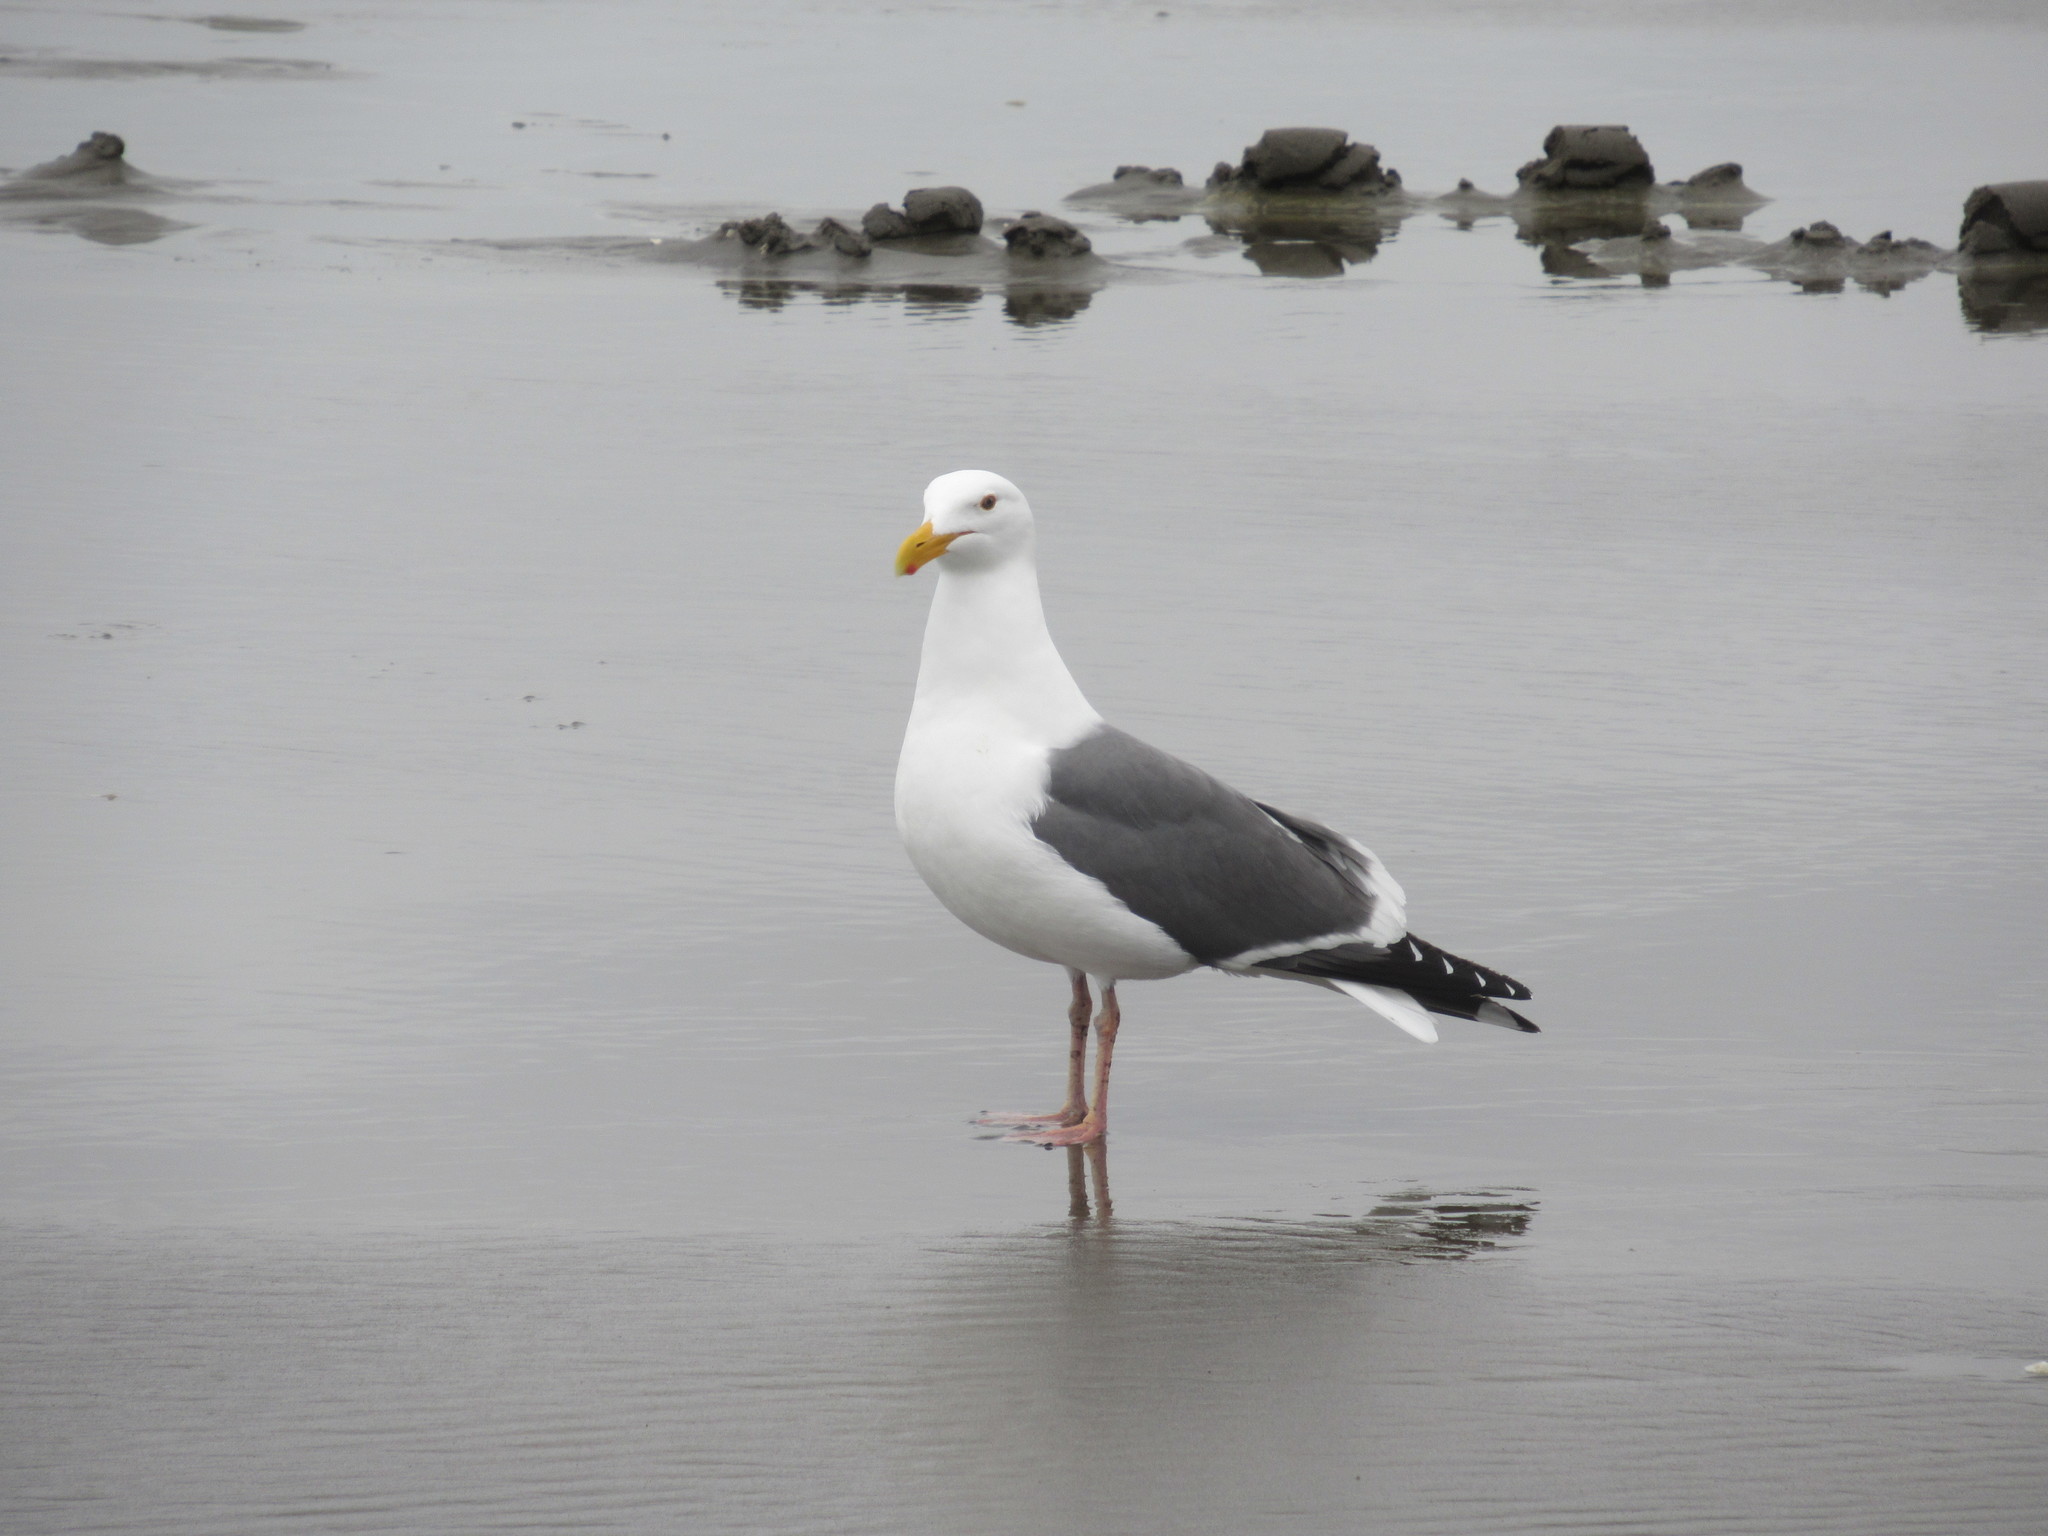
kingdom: Animalia
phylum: Chordata
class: Aves
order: Charadriiformes
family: Laridae
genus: Larus
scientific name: Larus occidentalis
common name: Western gull
